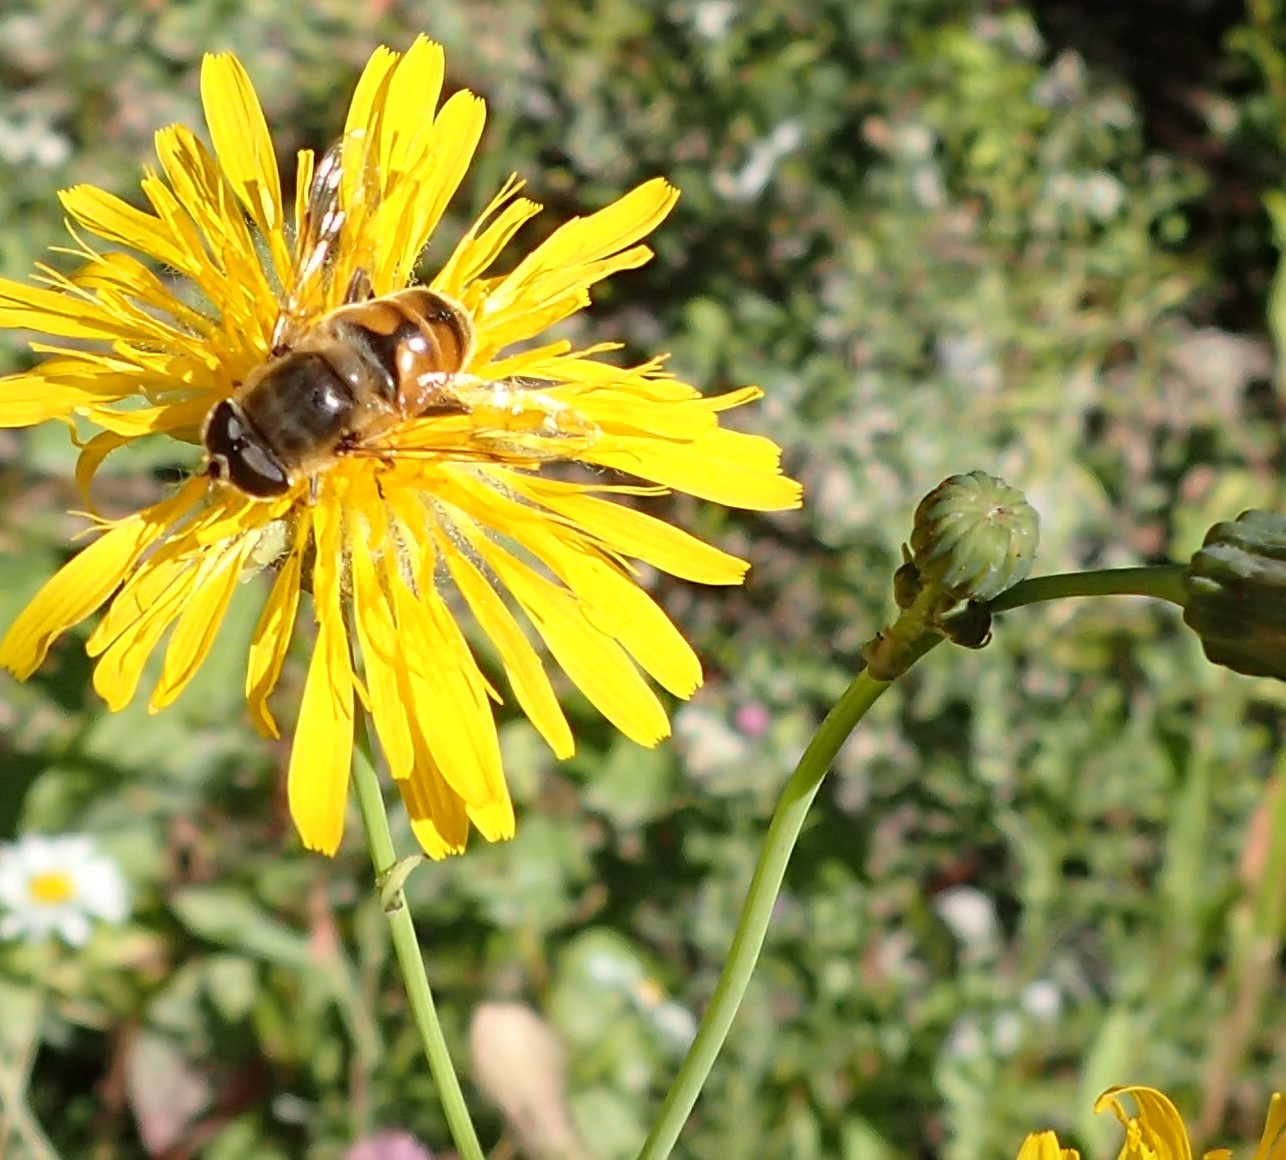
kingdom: Animalia
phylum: Arthropoda
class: Insecta
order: Diptera
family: Syrphidae
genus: Eristalis
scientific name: Eristalis tenax
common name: Drone fly
